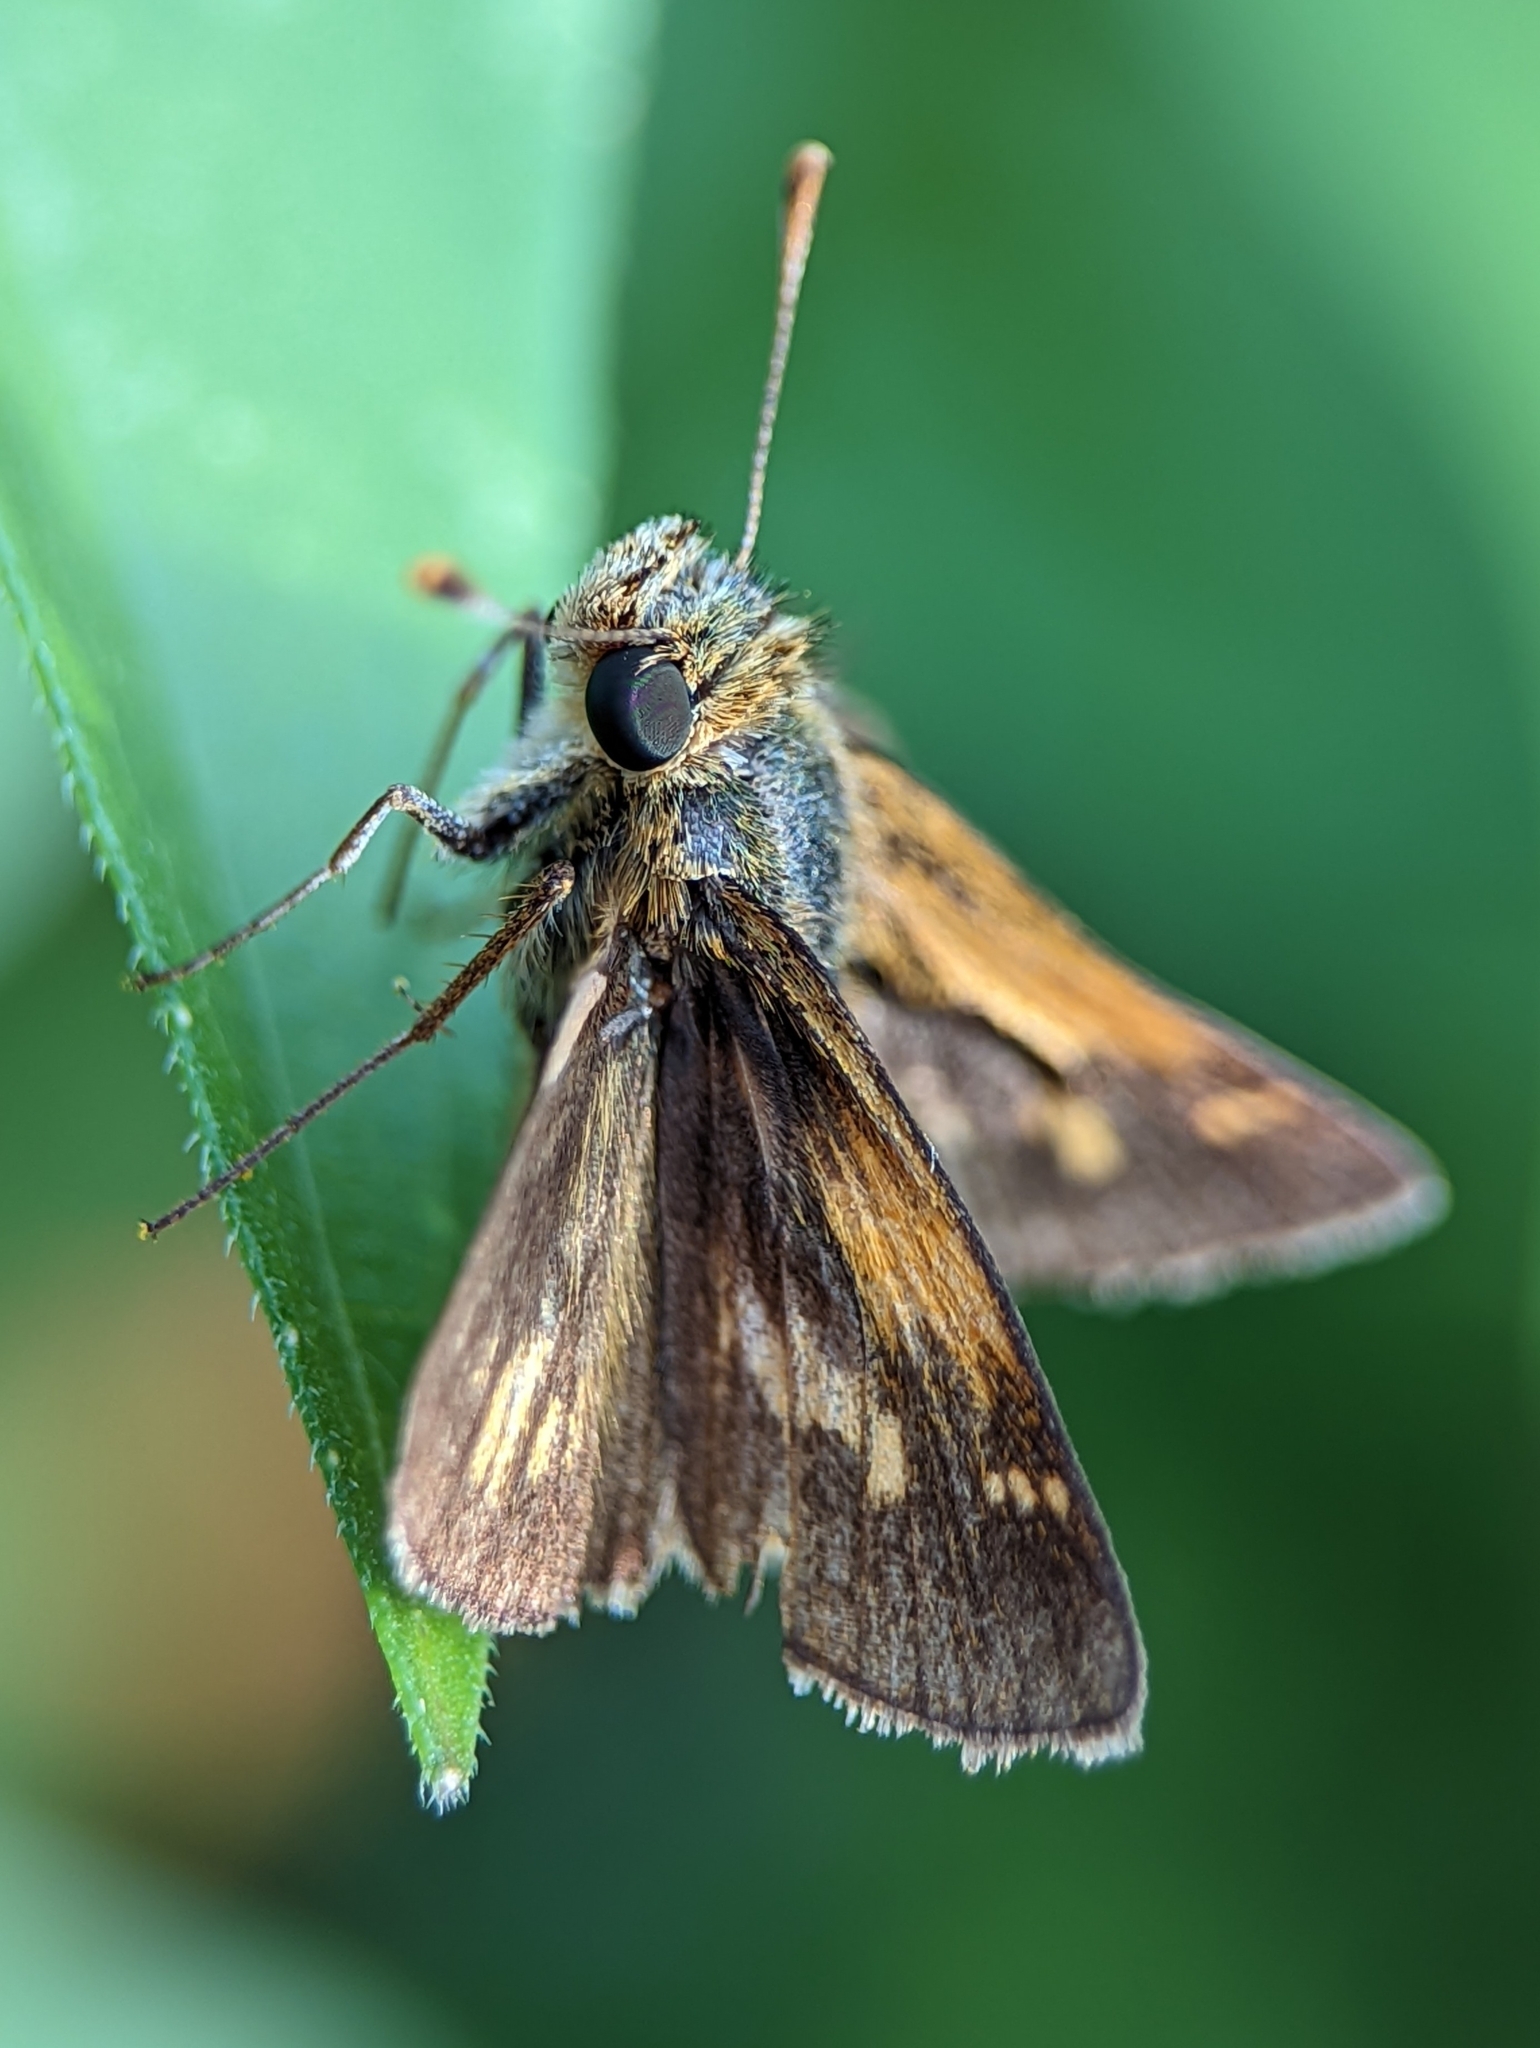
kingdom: Animalia
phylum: Arthropoda
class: Insecta
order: Lepidoptera
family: Hesperiidae
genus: Polites
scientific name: Polites coras
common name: Peck's skipper
